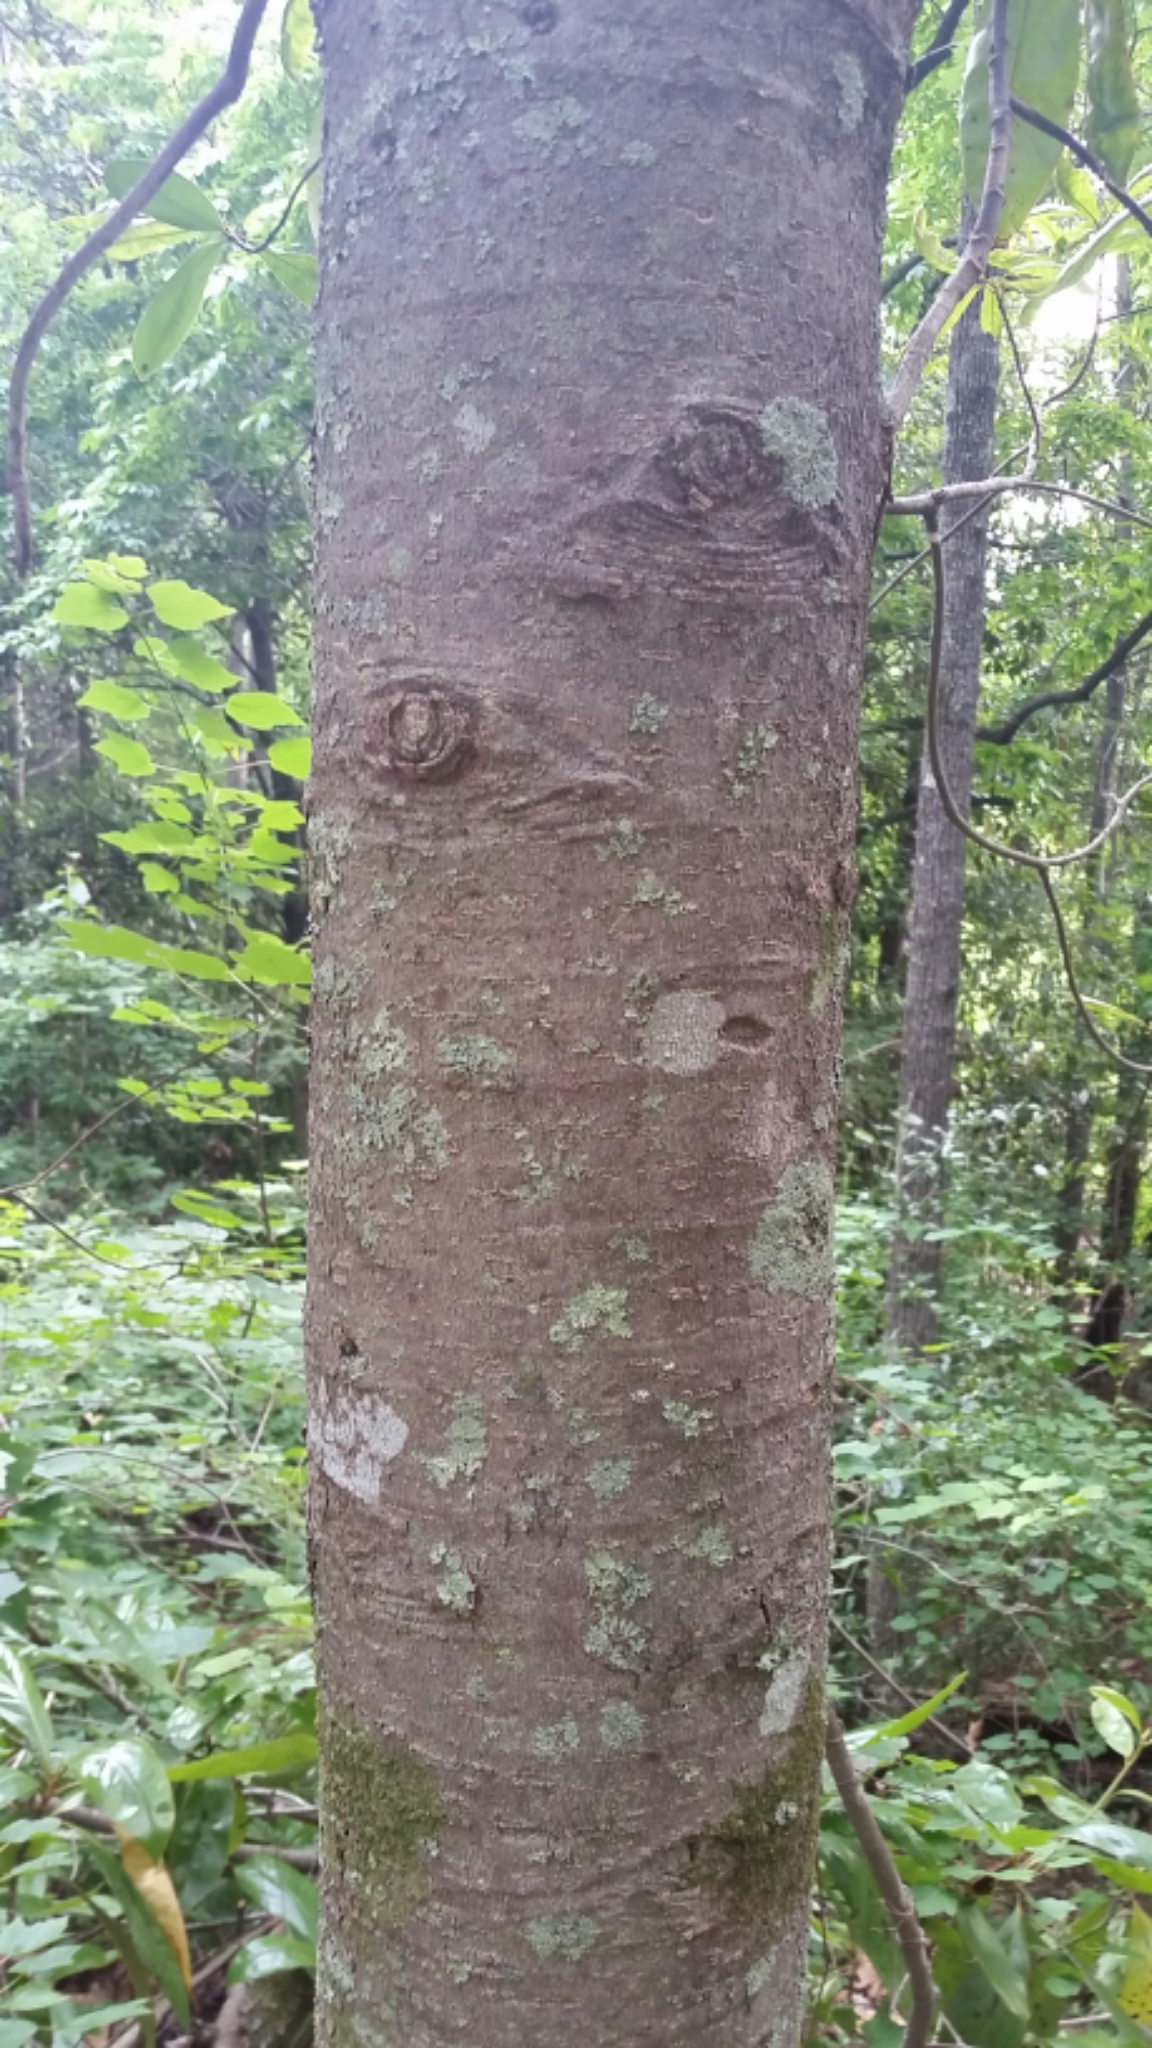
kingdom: Plantae
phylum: Tracheophyta
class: Magnoliopsida
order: Magnoliales
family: Magnoliaceae
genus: Magnolia
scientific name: Magnolia grandiflora
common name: Southern magnolia
